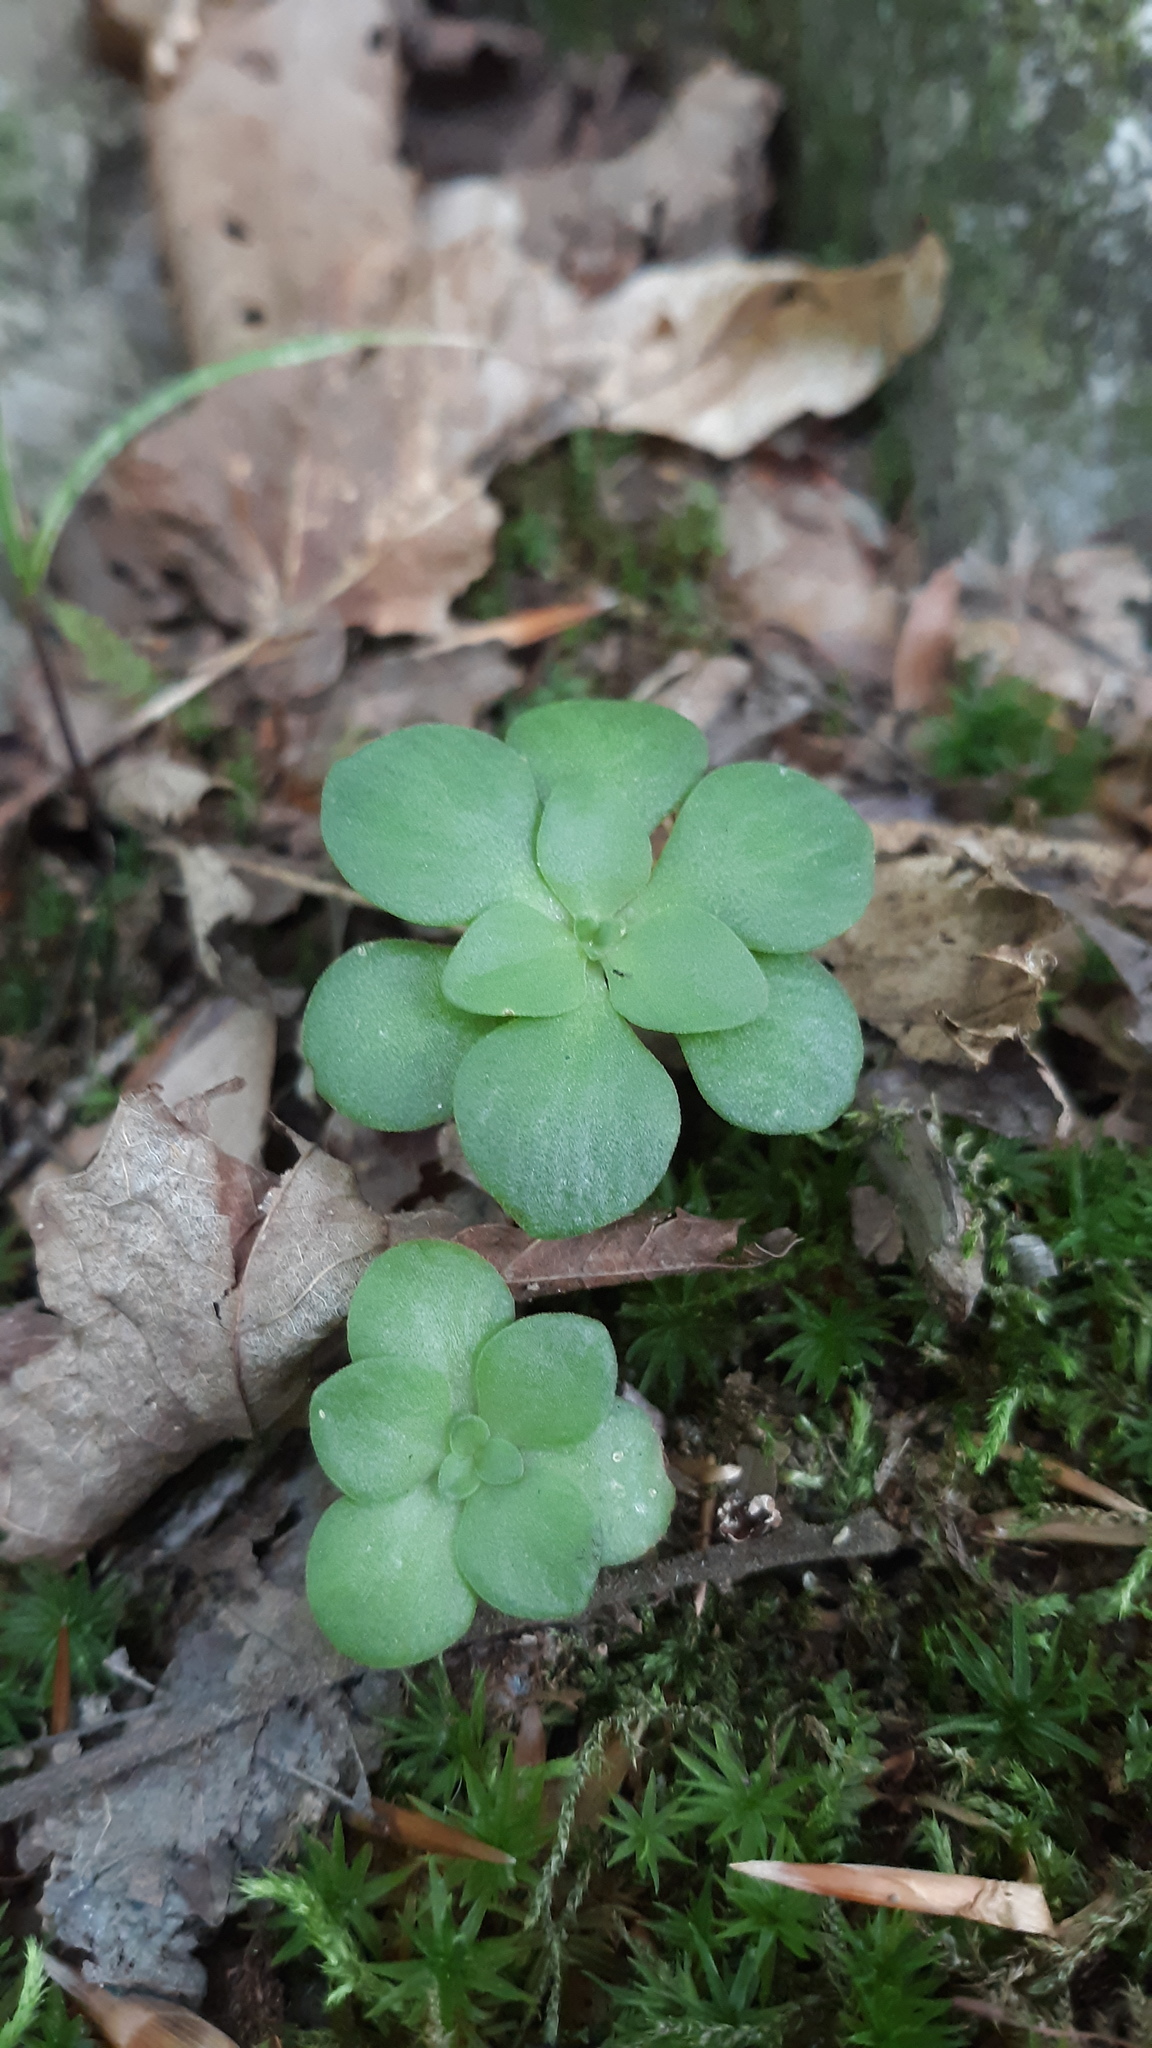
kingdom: Plantae
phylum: Tracheophyta
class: Magnoliopsida
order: Saxifragales
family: Crassulaceae
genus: Sedum
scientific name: Sedum ternatum
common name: Wild stonecrop
